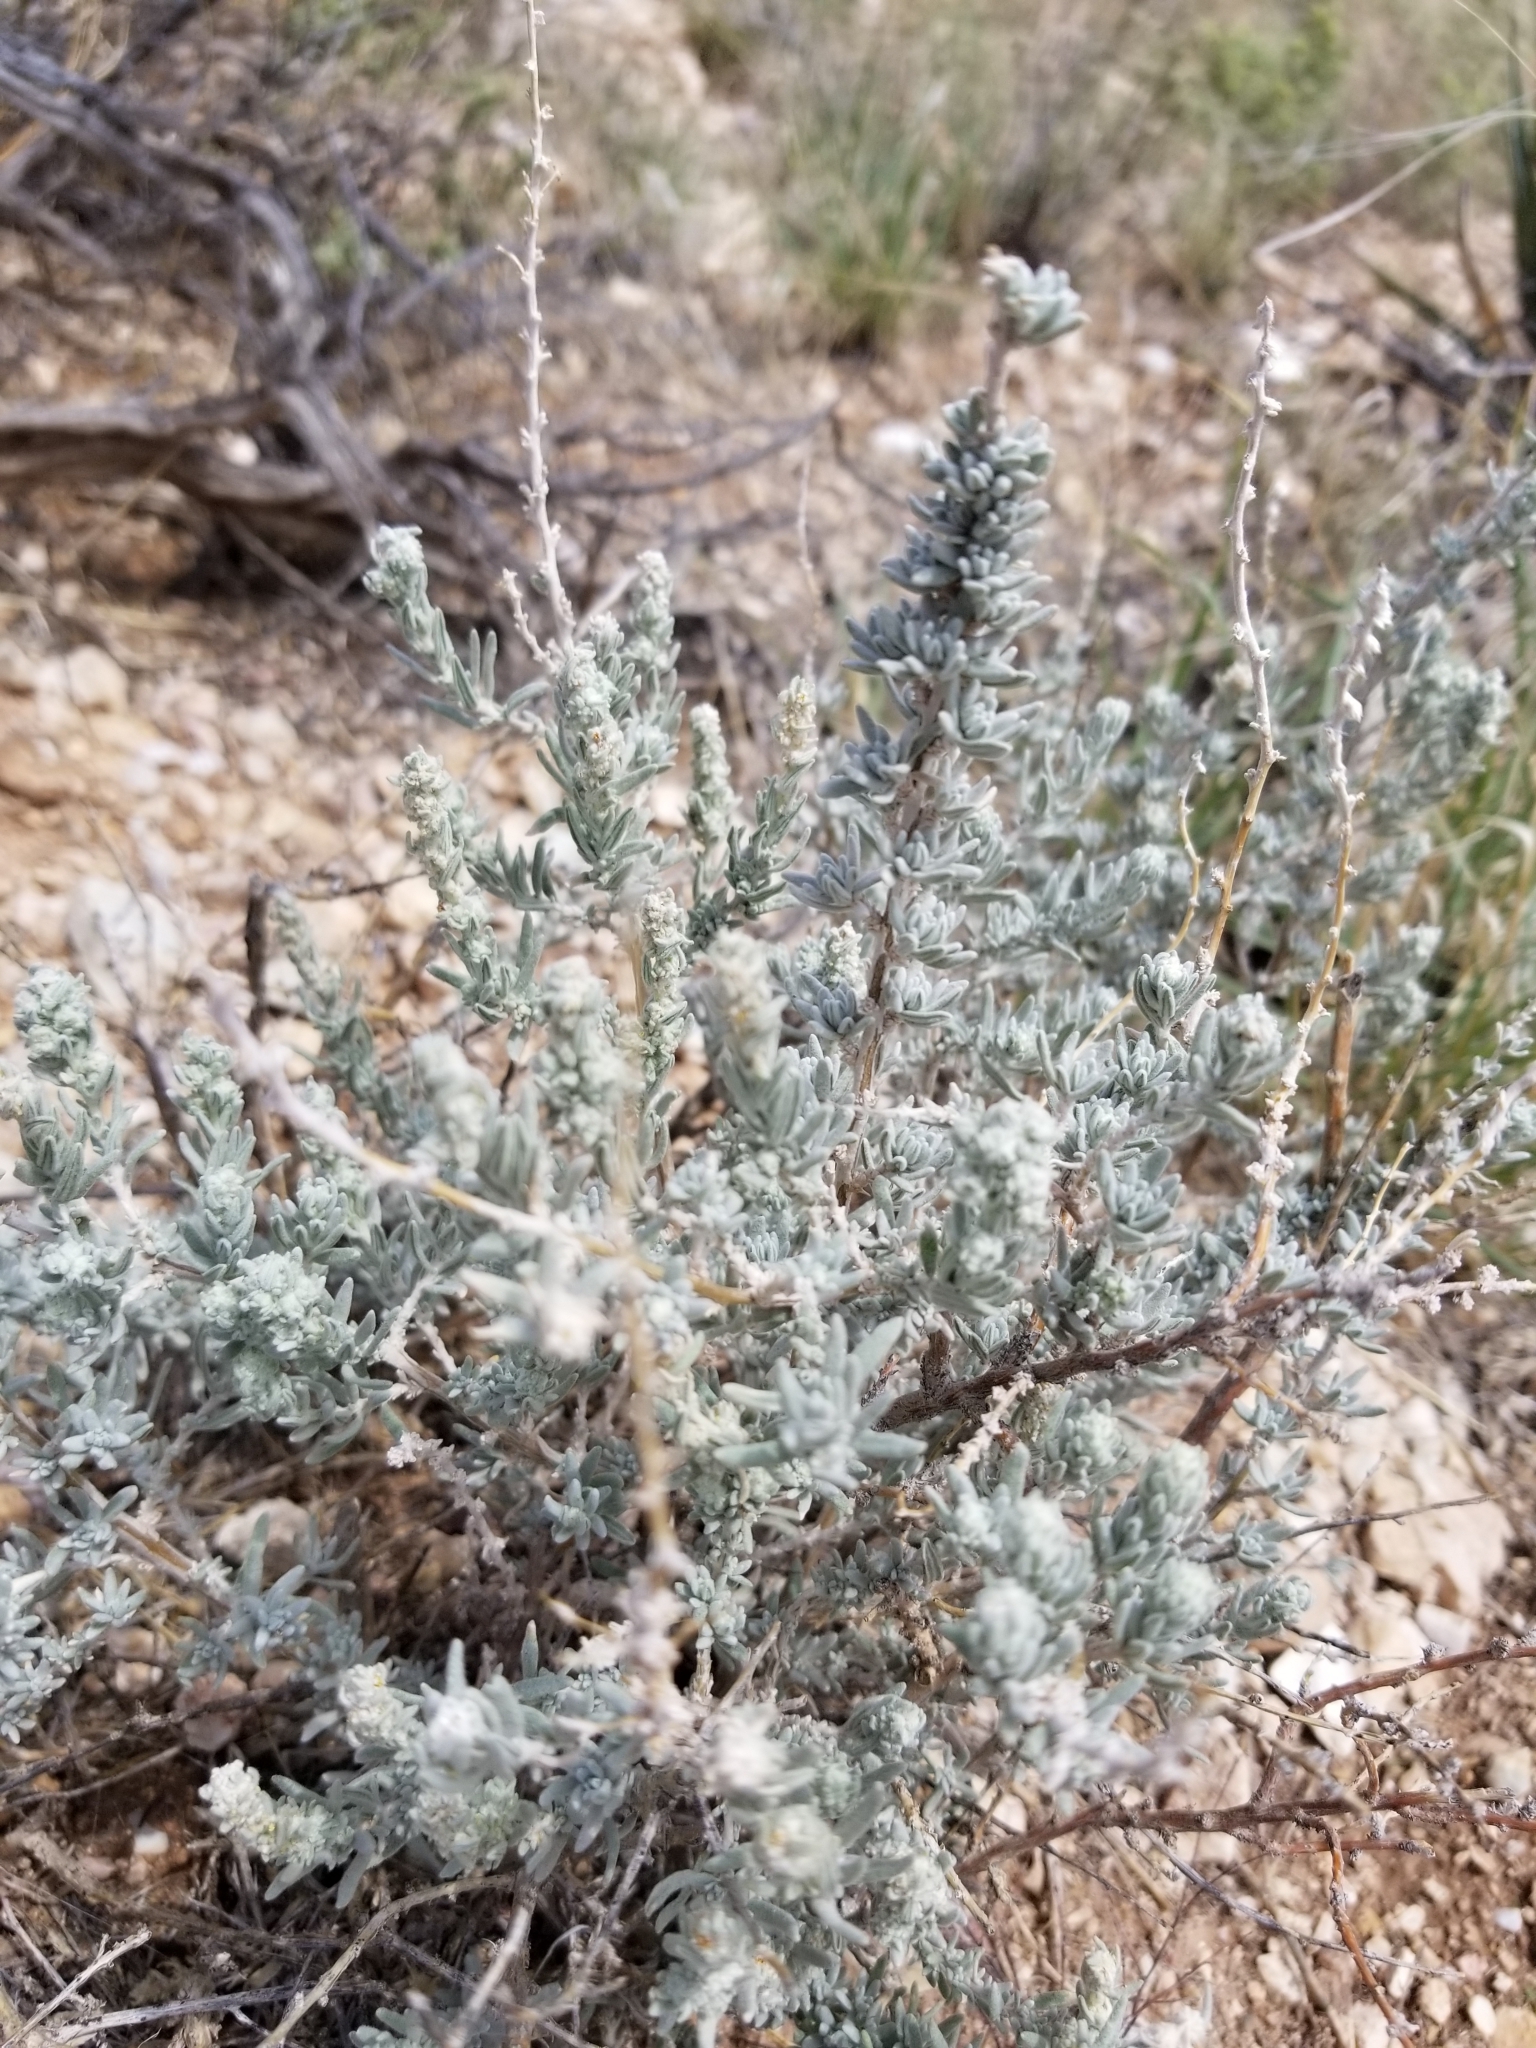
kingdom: Plantae
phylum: Tracheophyta
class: Magnoliopsida
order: Caryophyllales
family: Amaranthaceae
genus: Krascheninnikovia
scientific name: Krascheninnikovia lanata
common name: Winterfat
